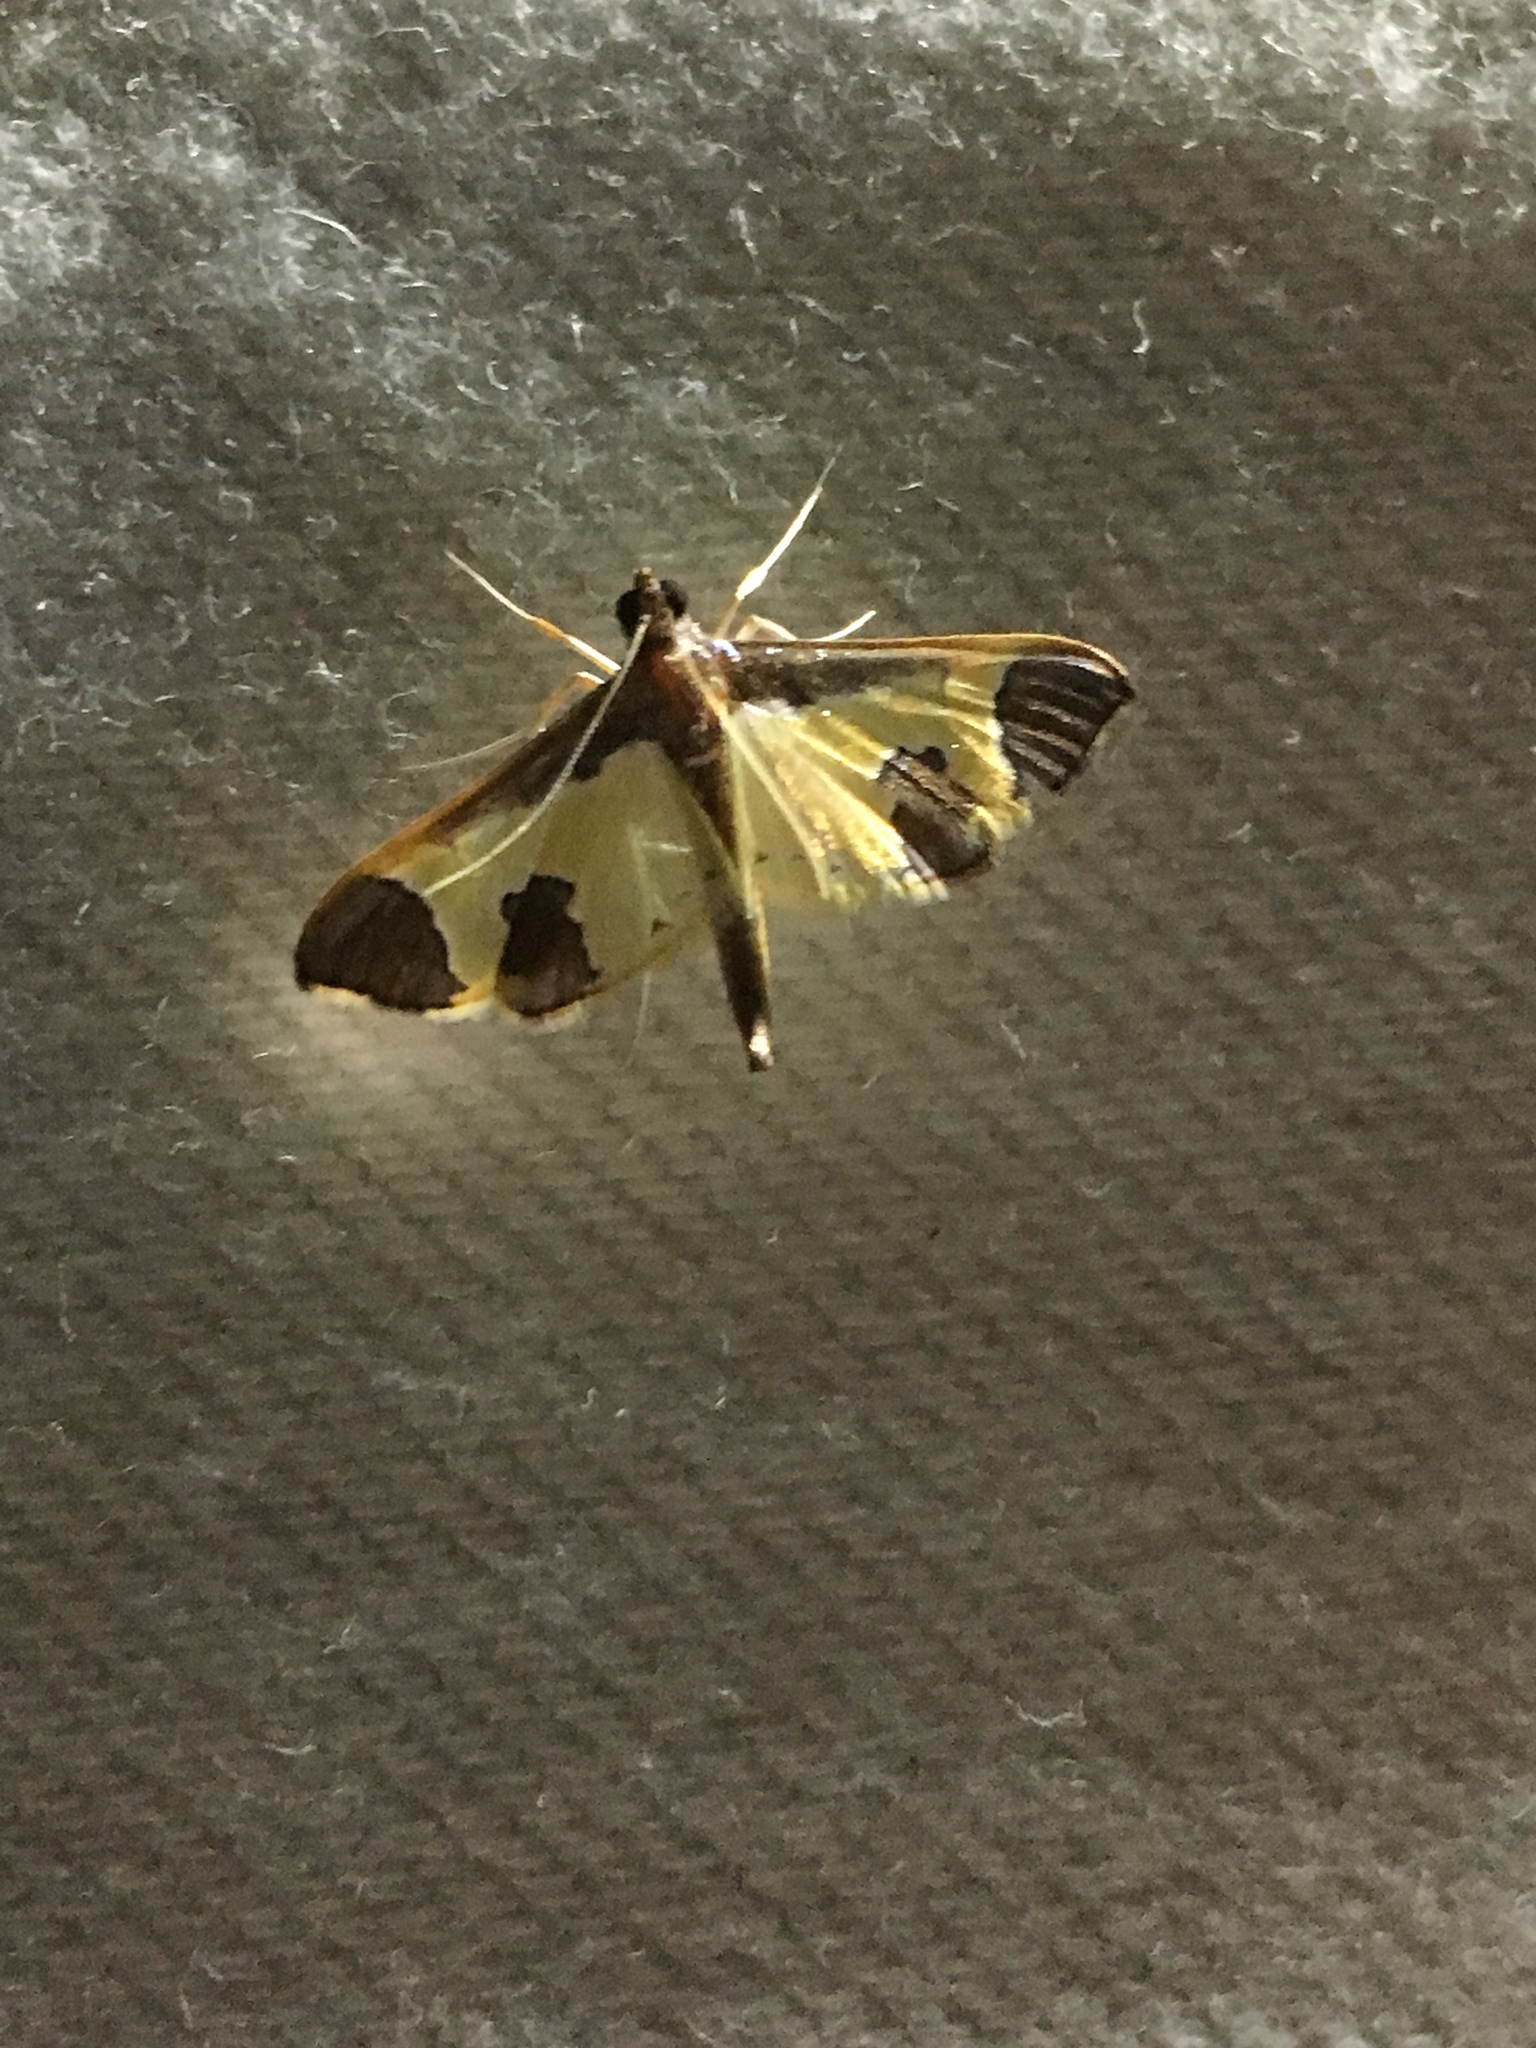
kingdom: Animalia
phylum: Arthropoda
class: Insecta
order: Lepidoptera
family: Crambidae
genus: Syllepis
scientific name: Syllepis marialis
